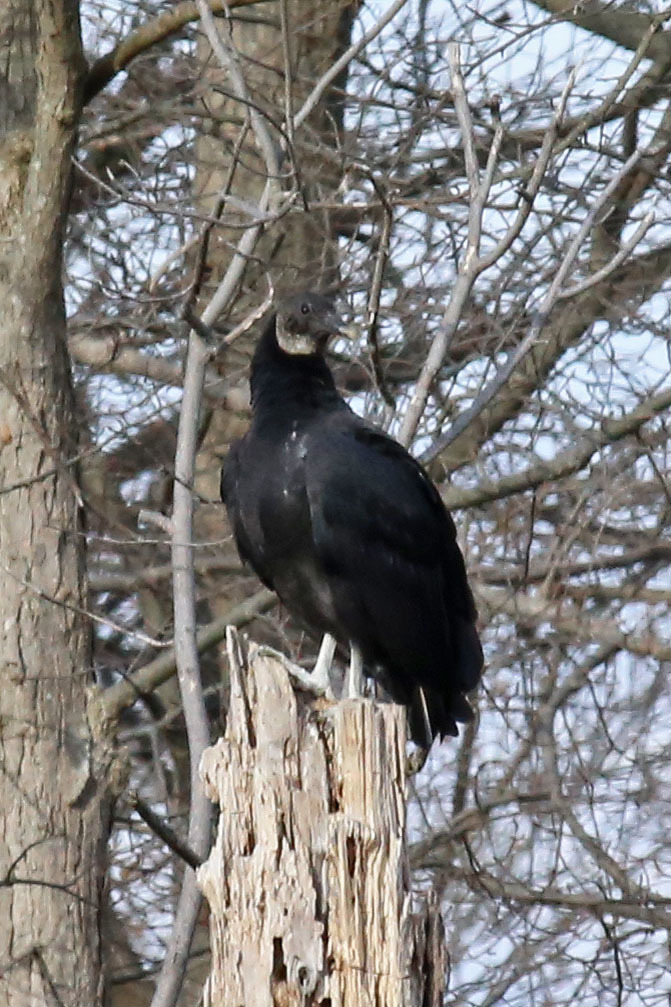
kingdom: Animalia
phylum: Chordata
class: Aves
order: Accipitriformes
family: Cathartidae
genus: Coragyps
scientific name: Coragyps atratus
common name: Black vulture
